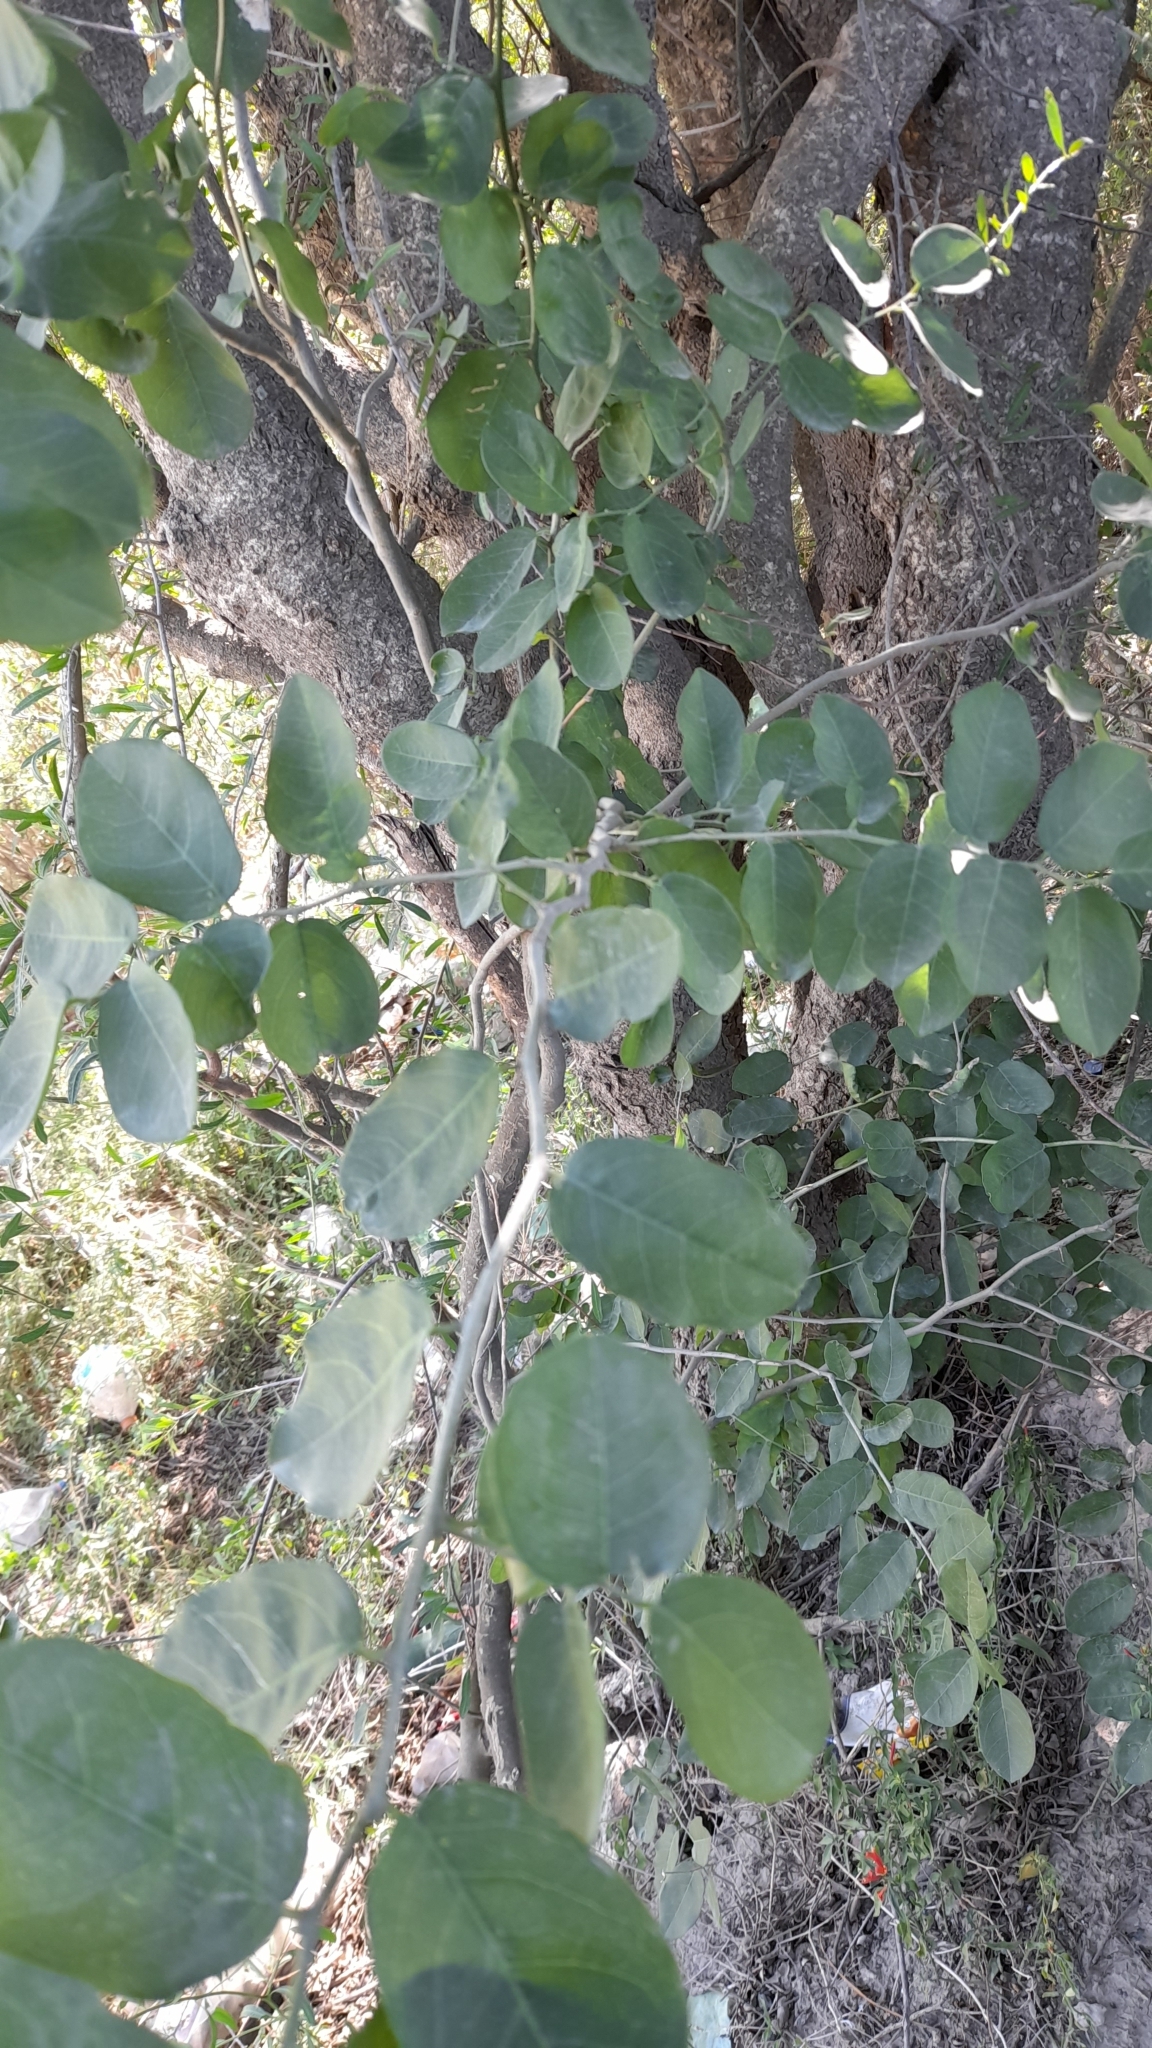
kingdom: Plantae
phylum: Tracheophyta
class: Magnoliopsida
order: Brassicales
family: Capparaceae
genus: Cynophalla
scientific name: Cynophalla retusa
